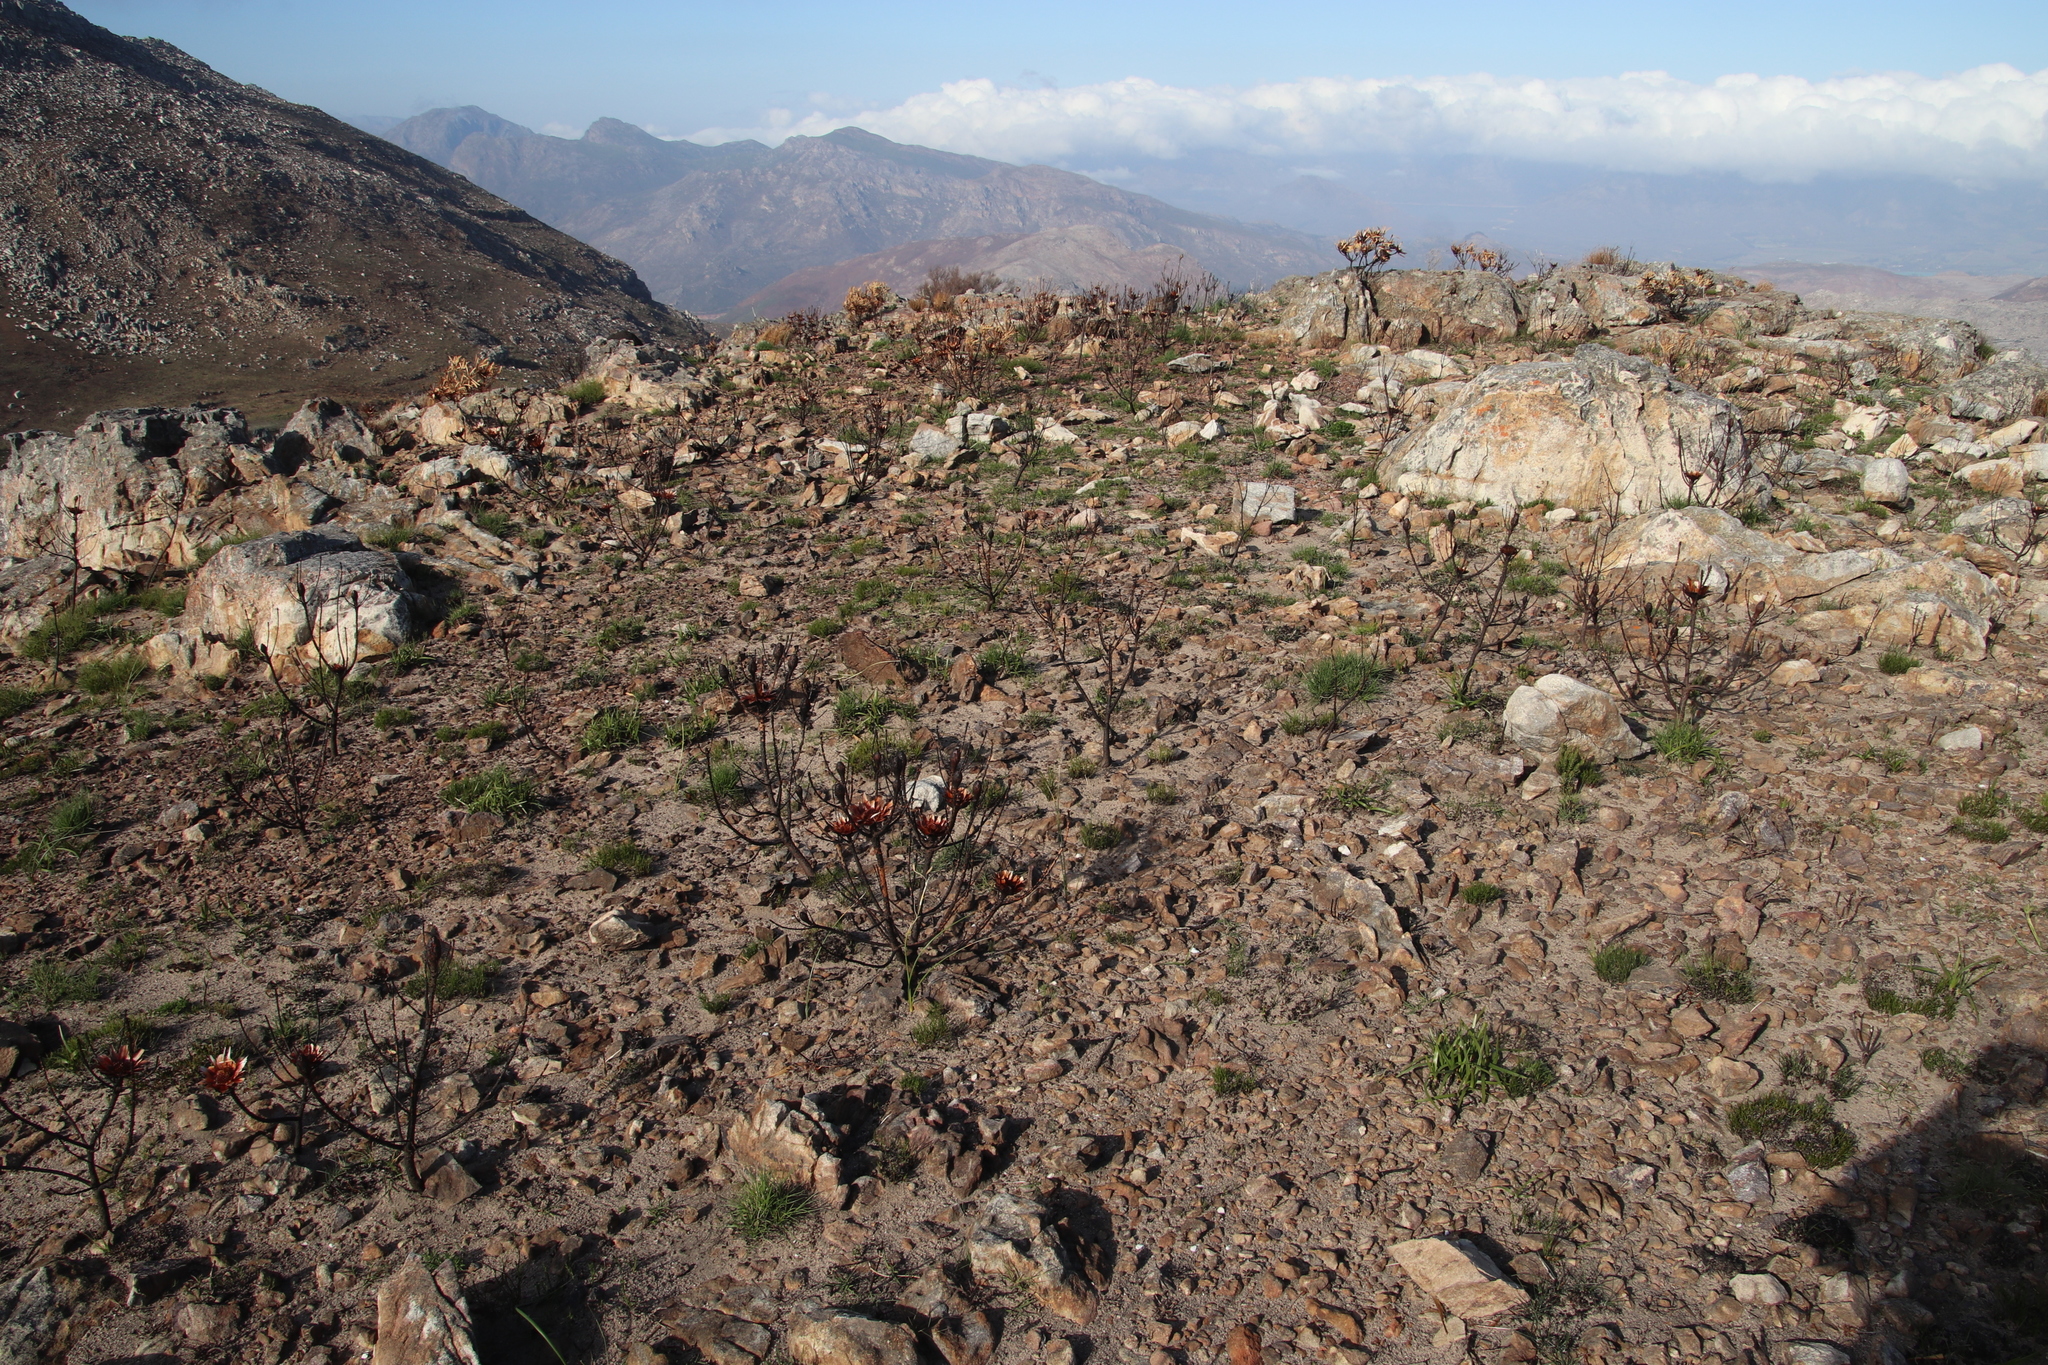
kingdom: Plantae
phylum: Tracheophyta
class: Magnoliopsida
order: Proteales
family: Proteaceae
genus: Protea
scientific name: Protea repens
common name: Sugarbush
